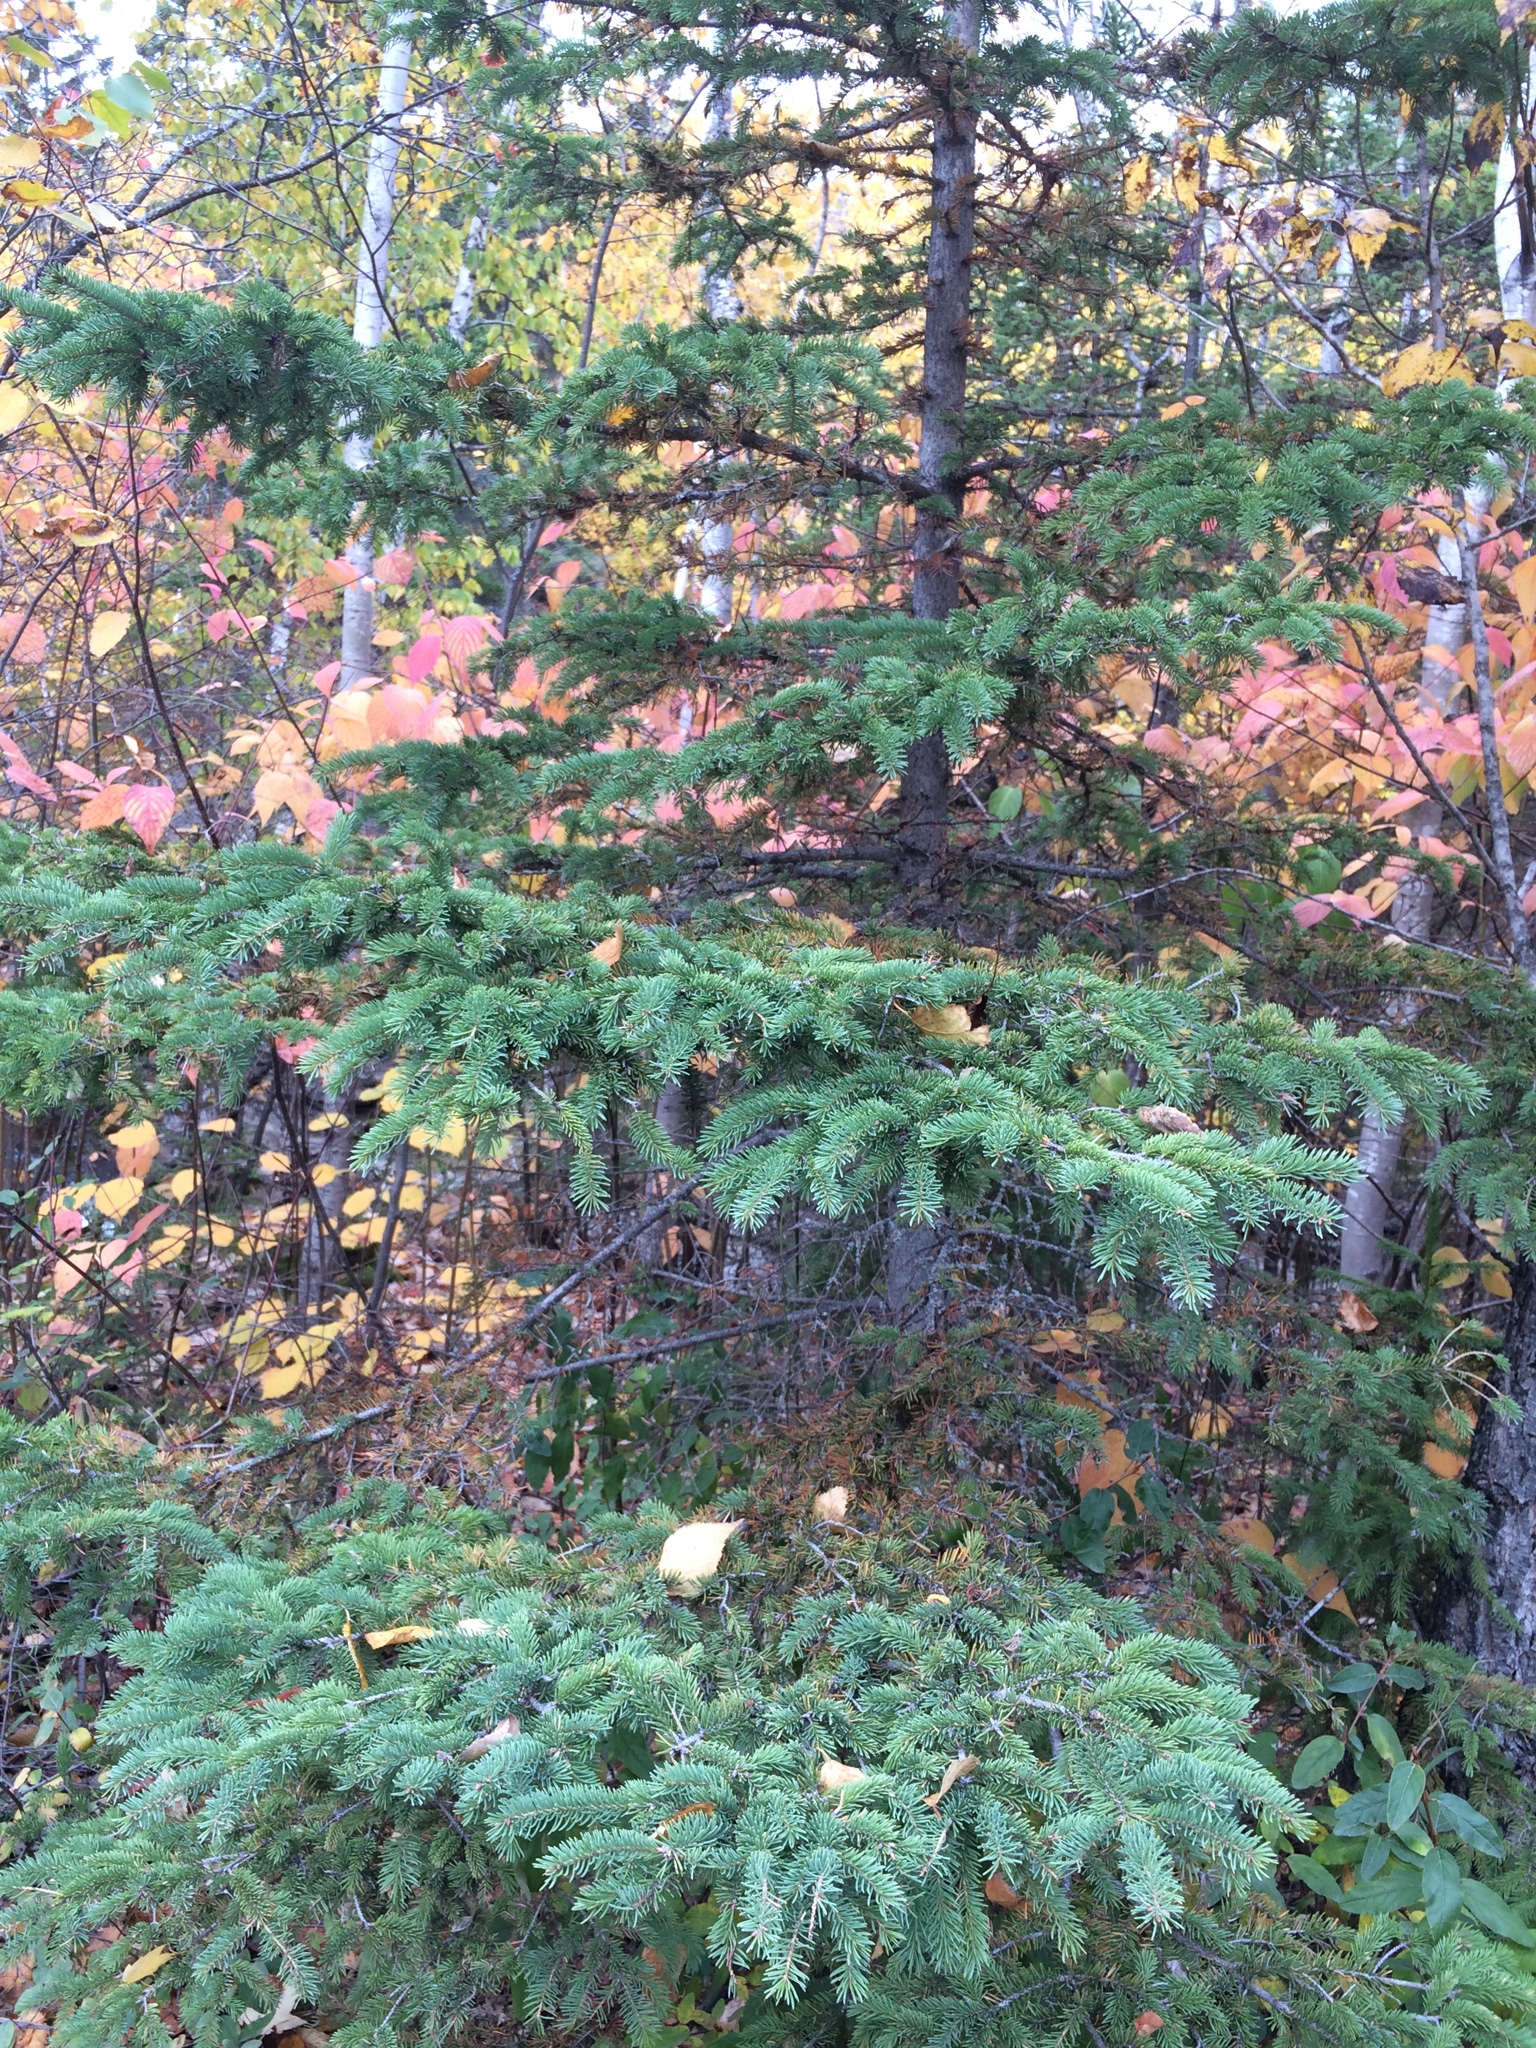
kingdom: Plantae
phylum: Tracheophyta
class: Pinopsida
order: Pinales
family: Pinaceae
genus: Picea
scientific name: Picea glauca
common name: White spruce
